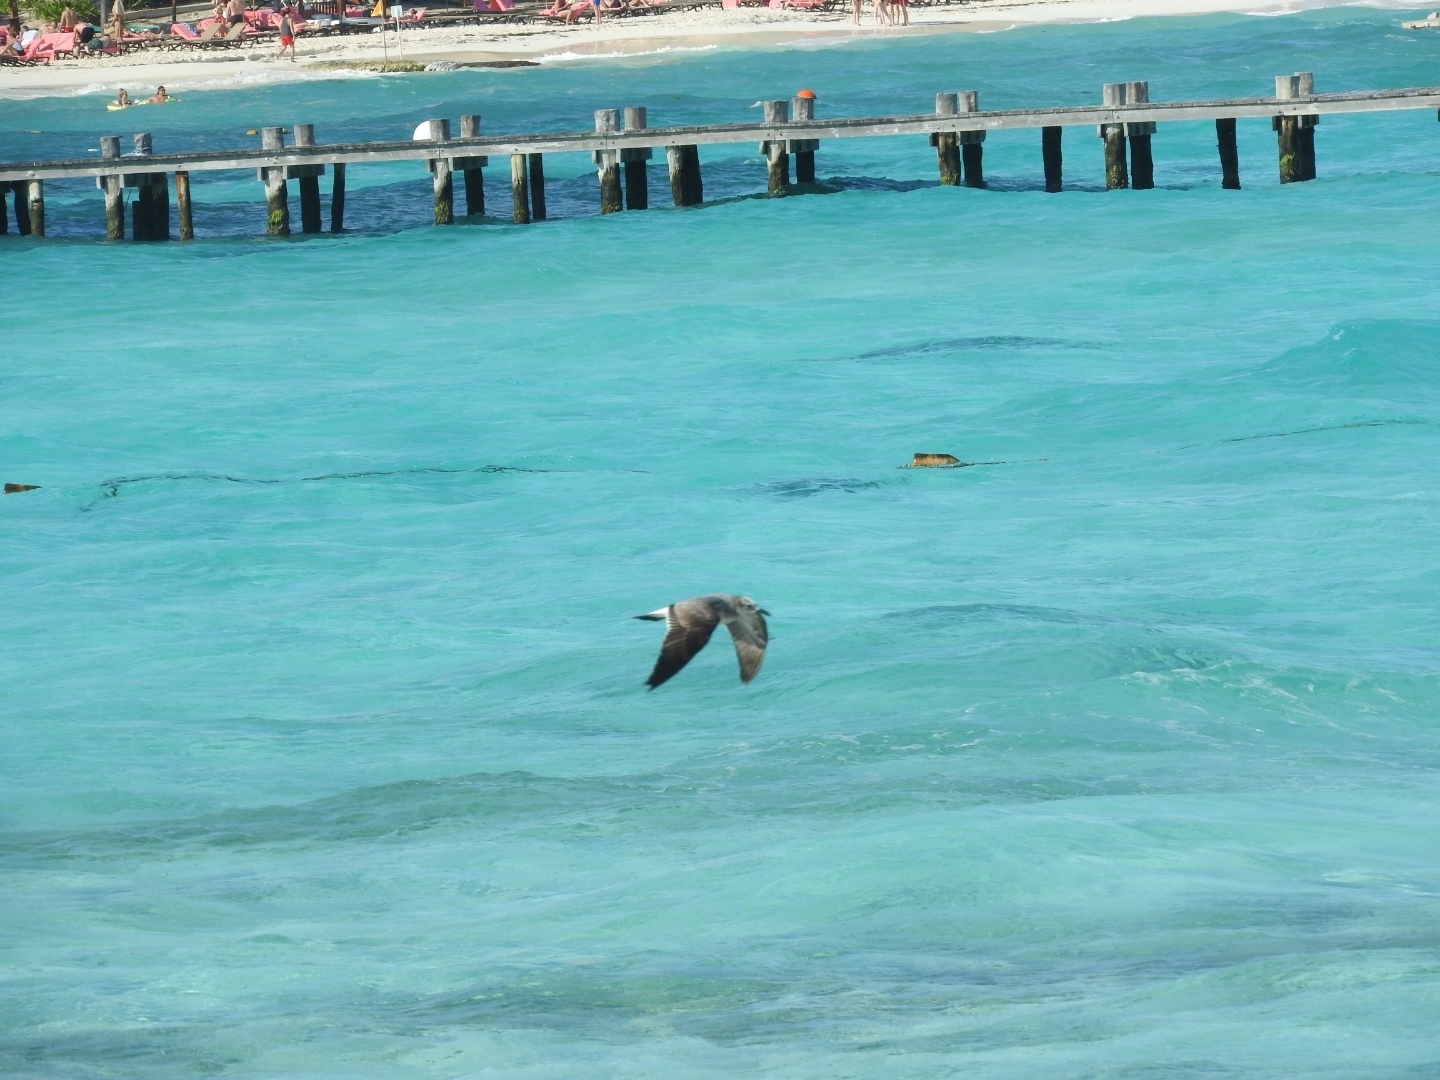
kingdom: Animalia
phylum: Chordata
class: Aves
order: Charadriiformes
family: Laridae
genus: Leucophaeus
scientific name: Leucophaeus atricilla
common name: Laughing gull
